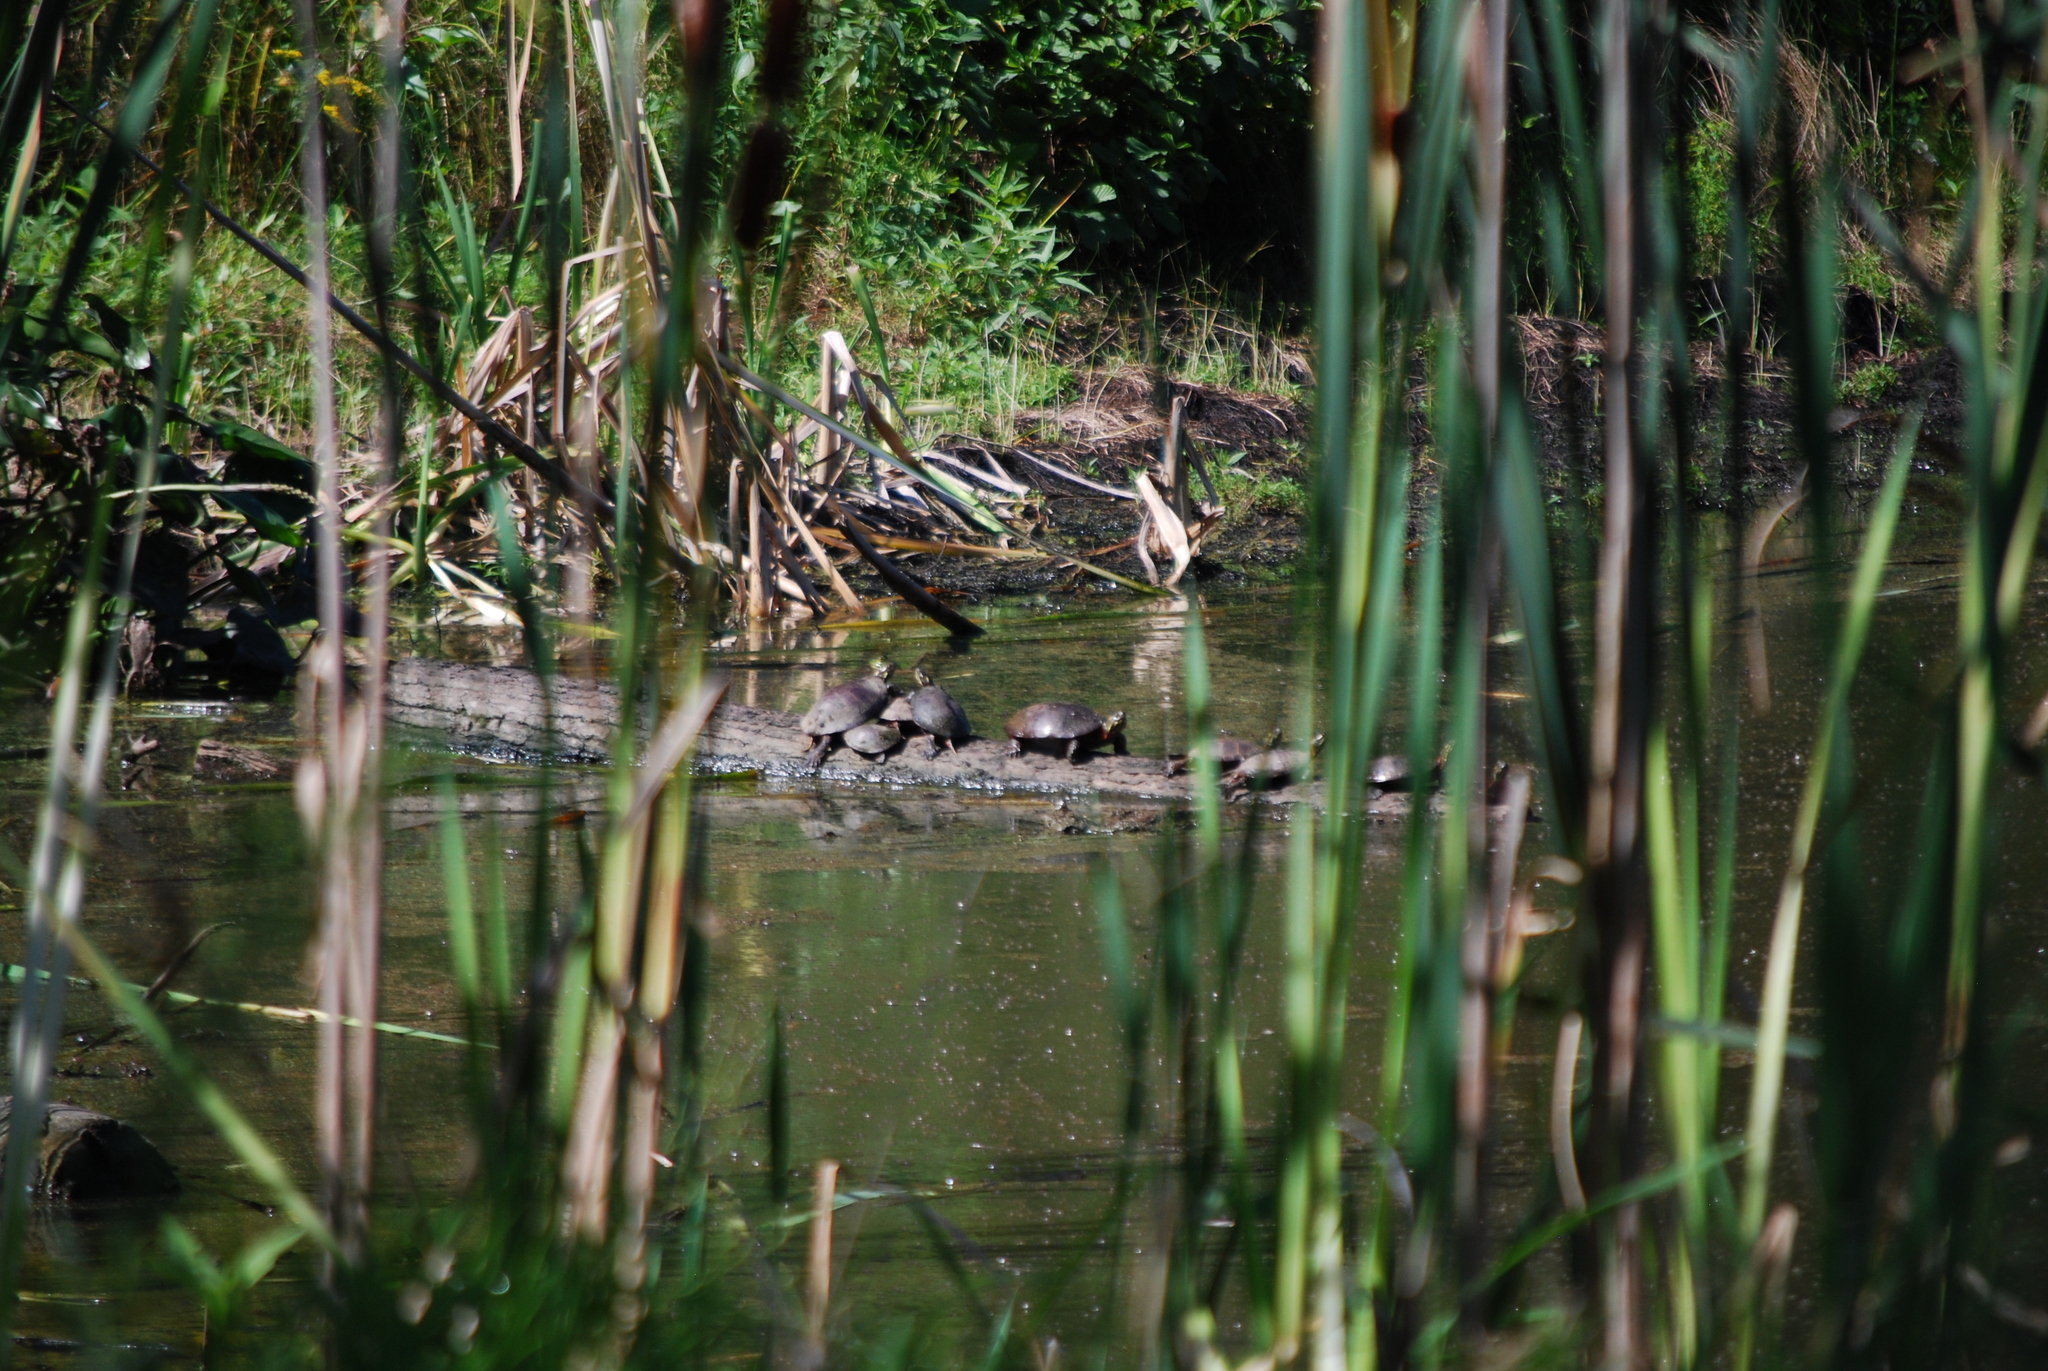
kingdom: Animalia
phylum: Chordata
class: Testudines
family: Emydidae
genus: Chrysemys
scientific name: Chrysemys picta
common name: Painted turtle
